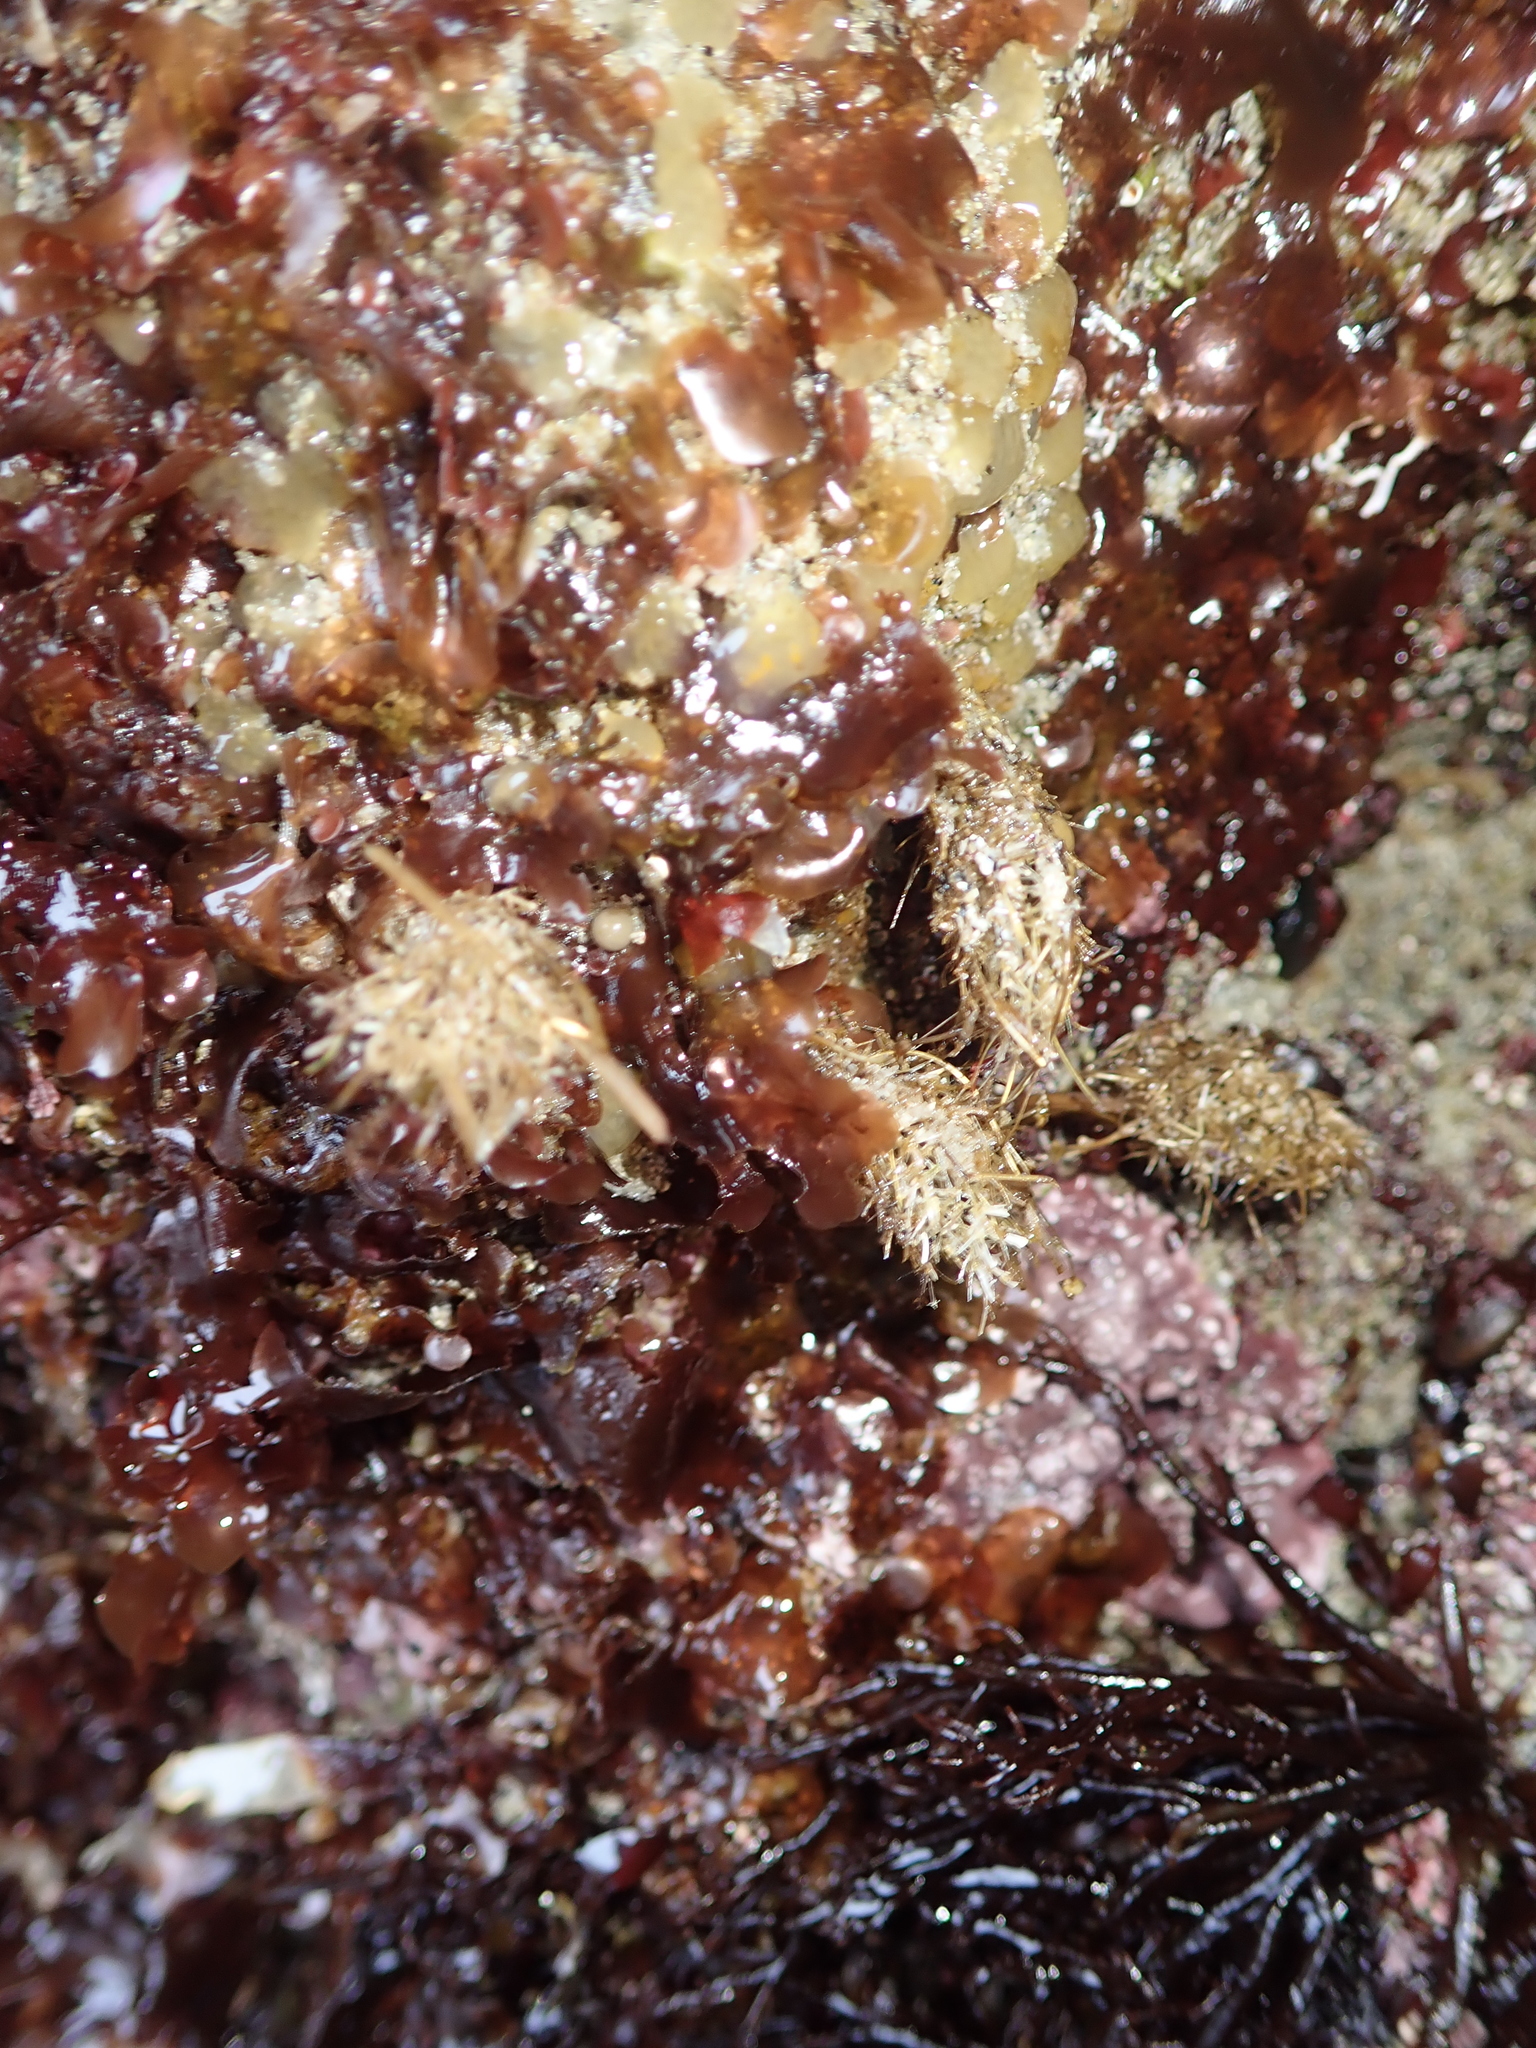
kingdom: Animalia
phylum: Annelida
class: Polychaeta
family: Terebellidae
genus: Pista
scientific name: Pista elongata
